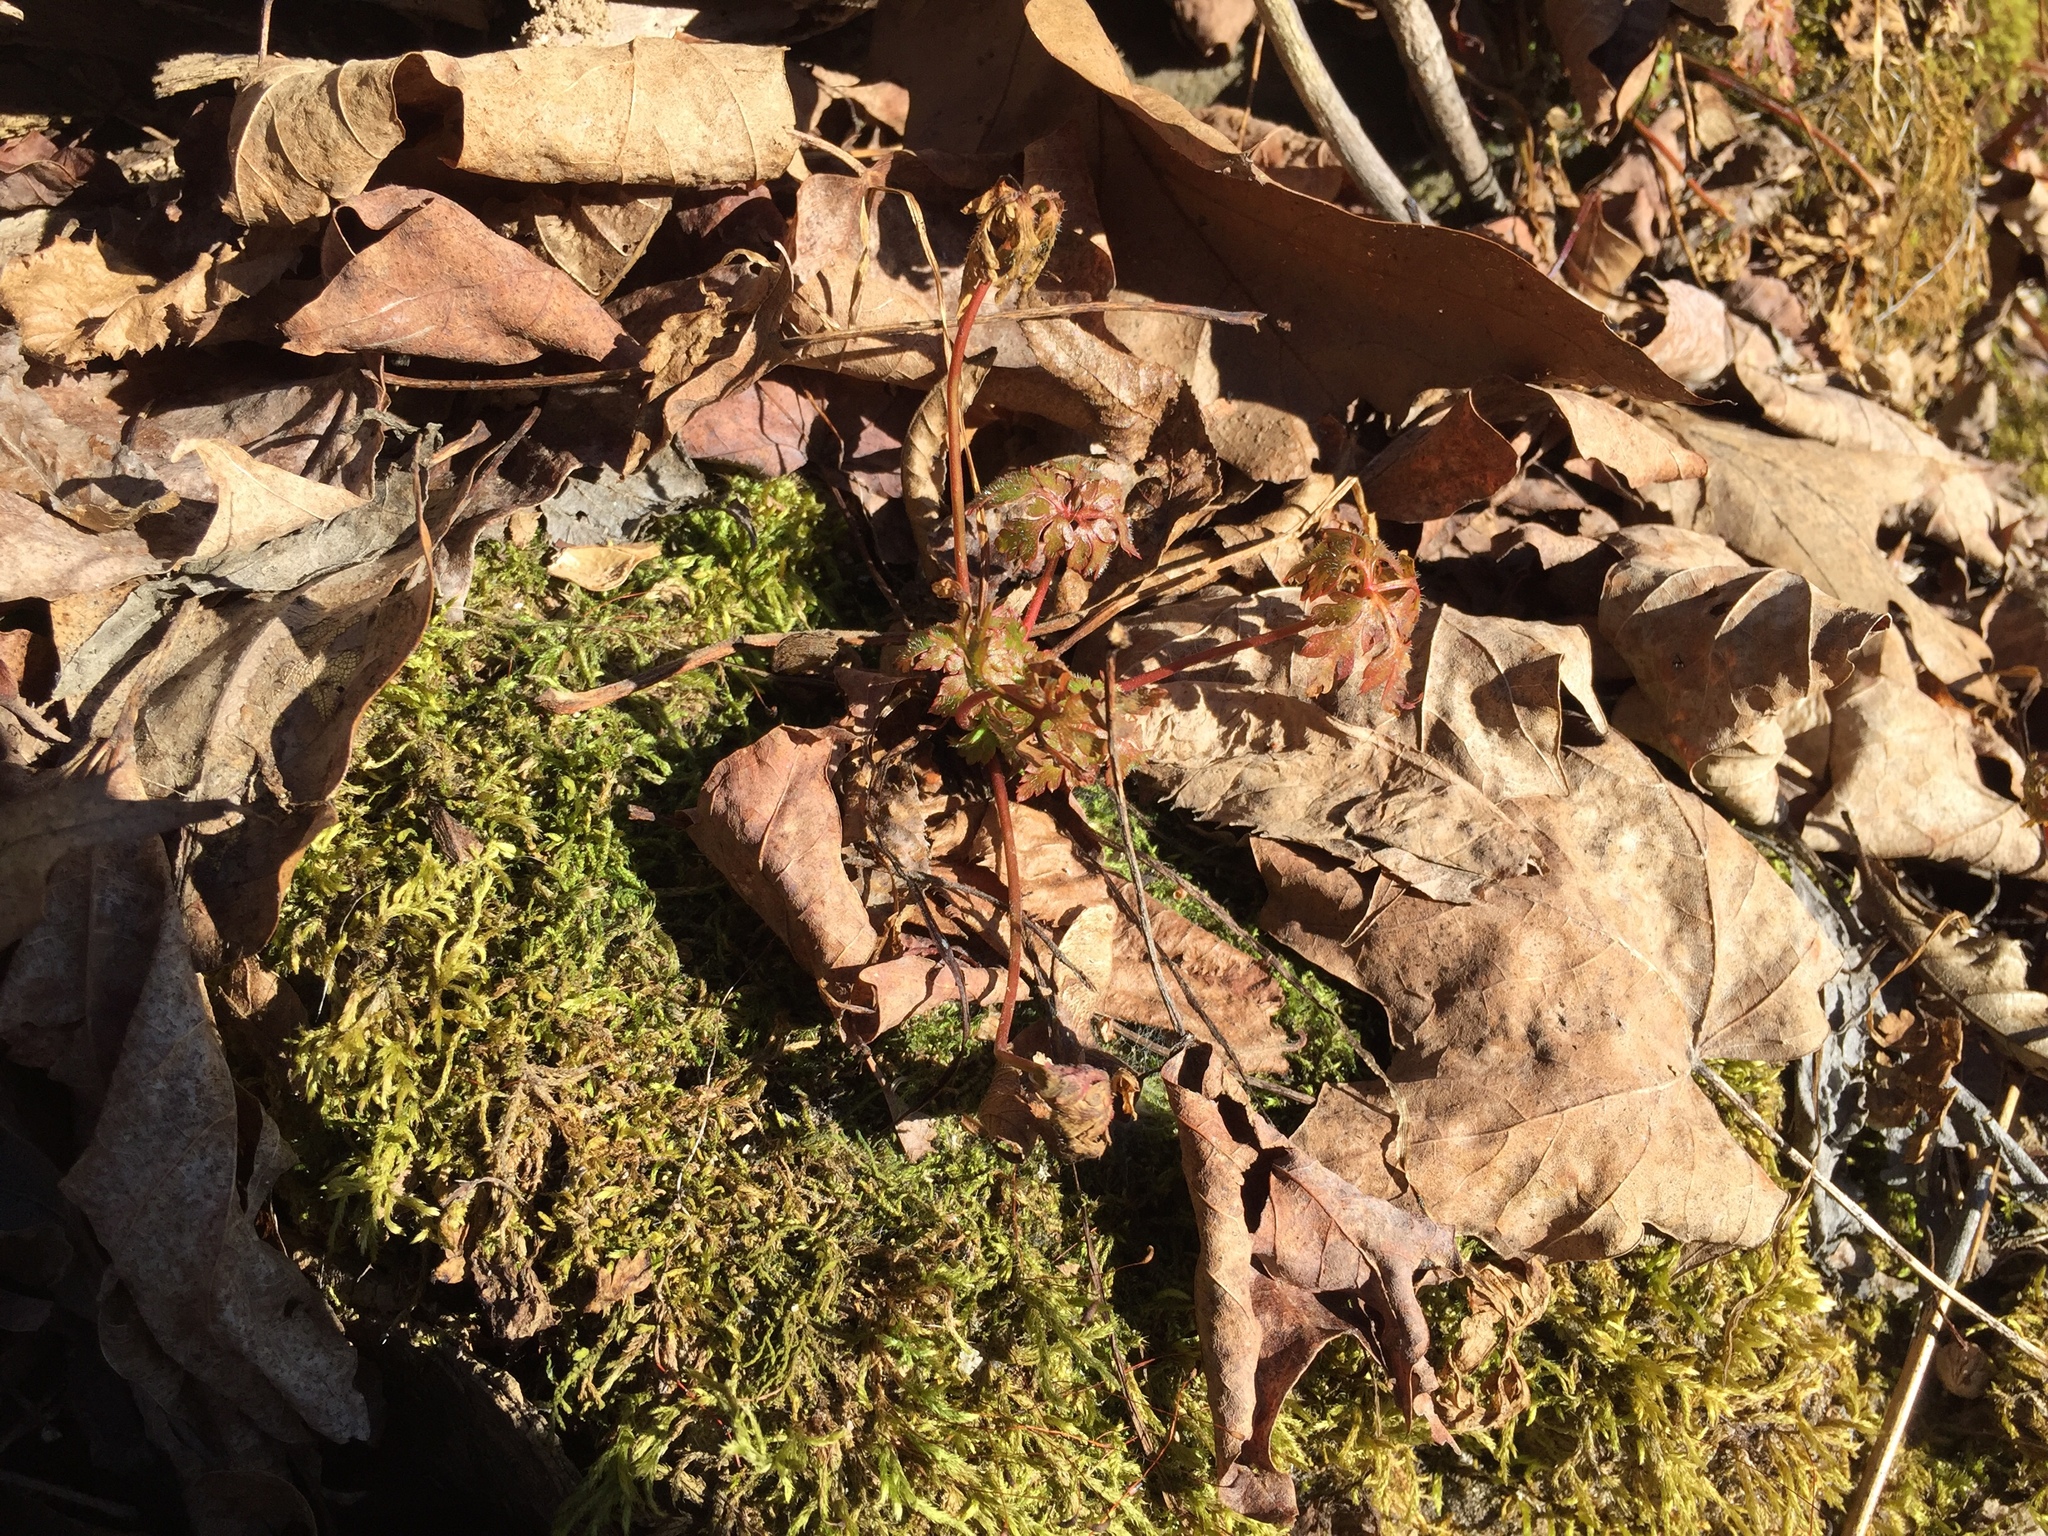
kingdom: Plantae
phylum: Tracheophyta
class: Magnoliopsida
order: Geraniales
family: Geraniaceae
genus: Geranium
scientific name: Geranium robertianum
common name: Herb-robert
